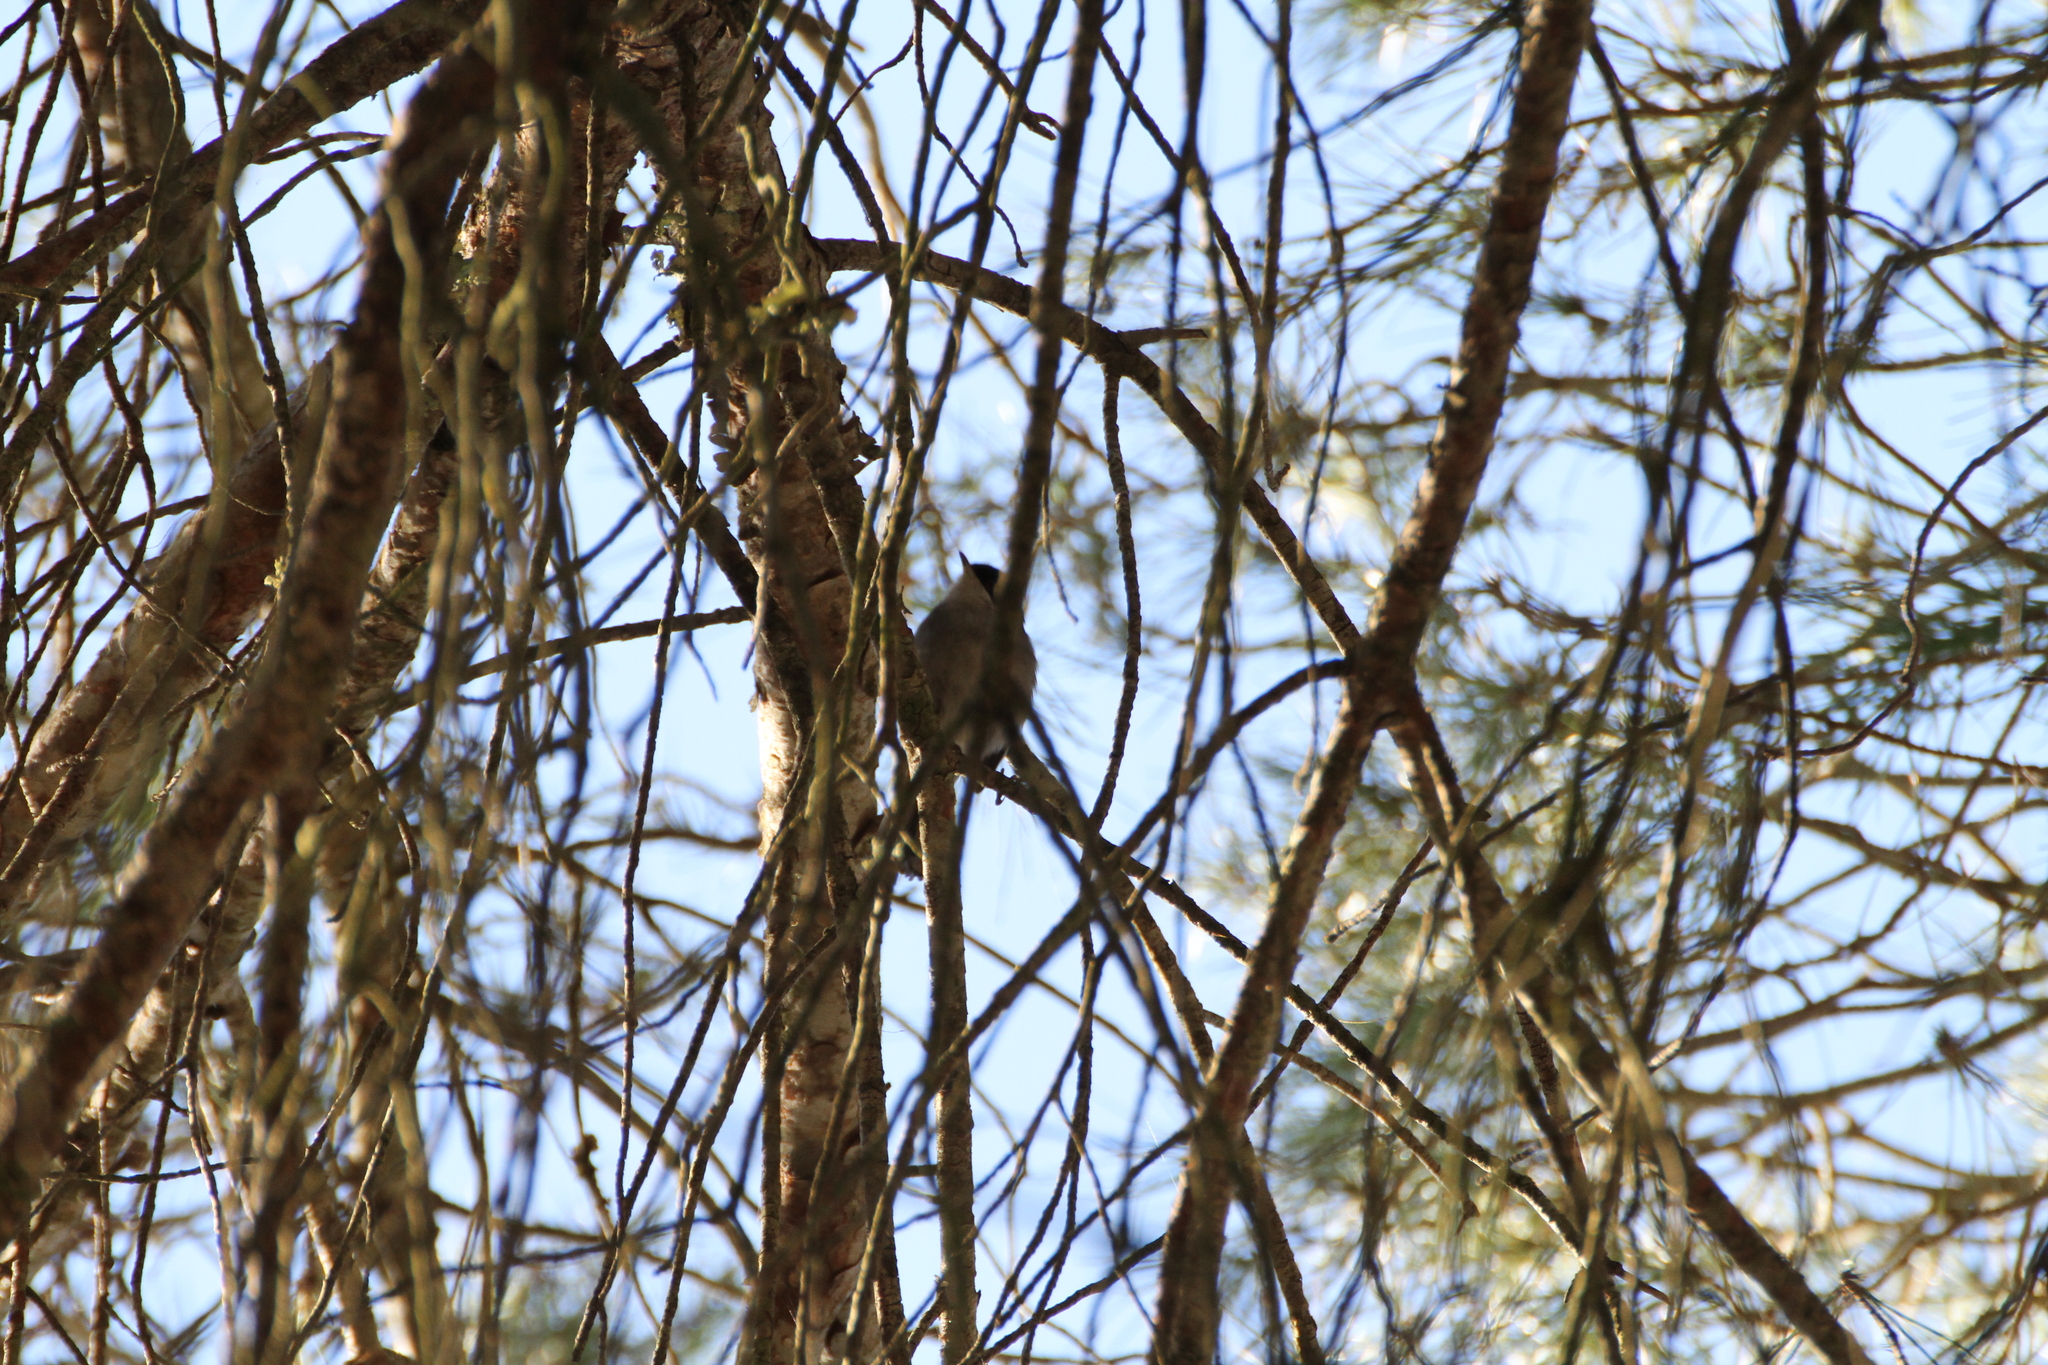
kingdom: Animalia
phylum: Chordata
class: Aves
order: Passeriformes
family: Sylviidae
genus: Curruca
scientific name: Curruca melanocephala
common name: Sardinian warbler
